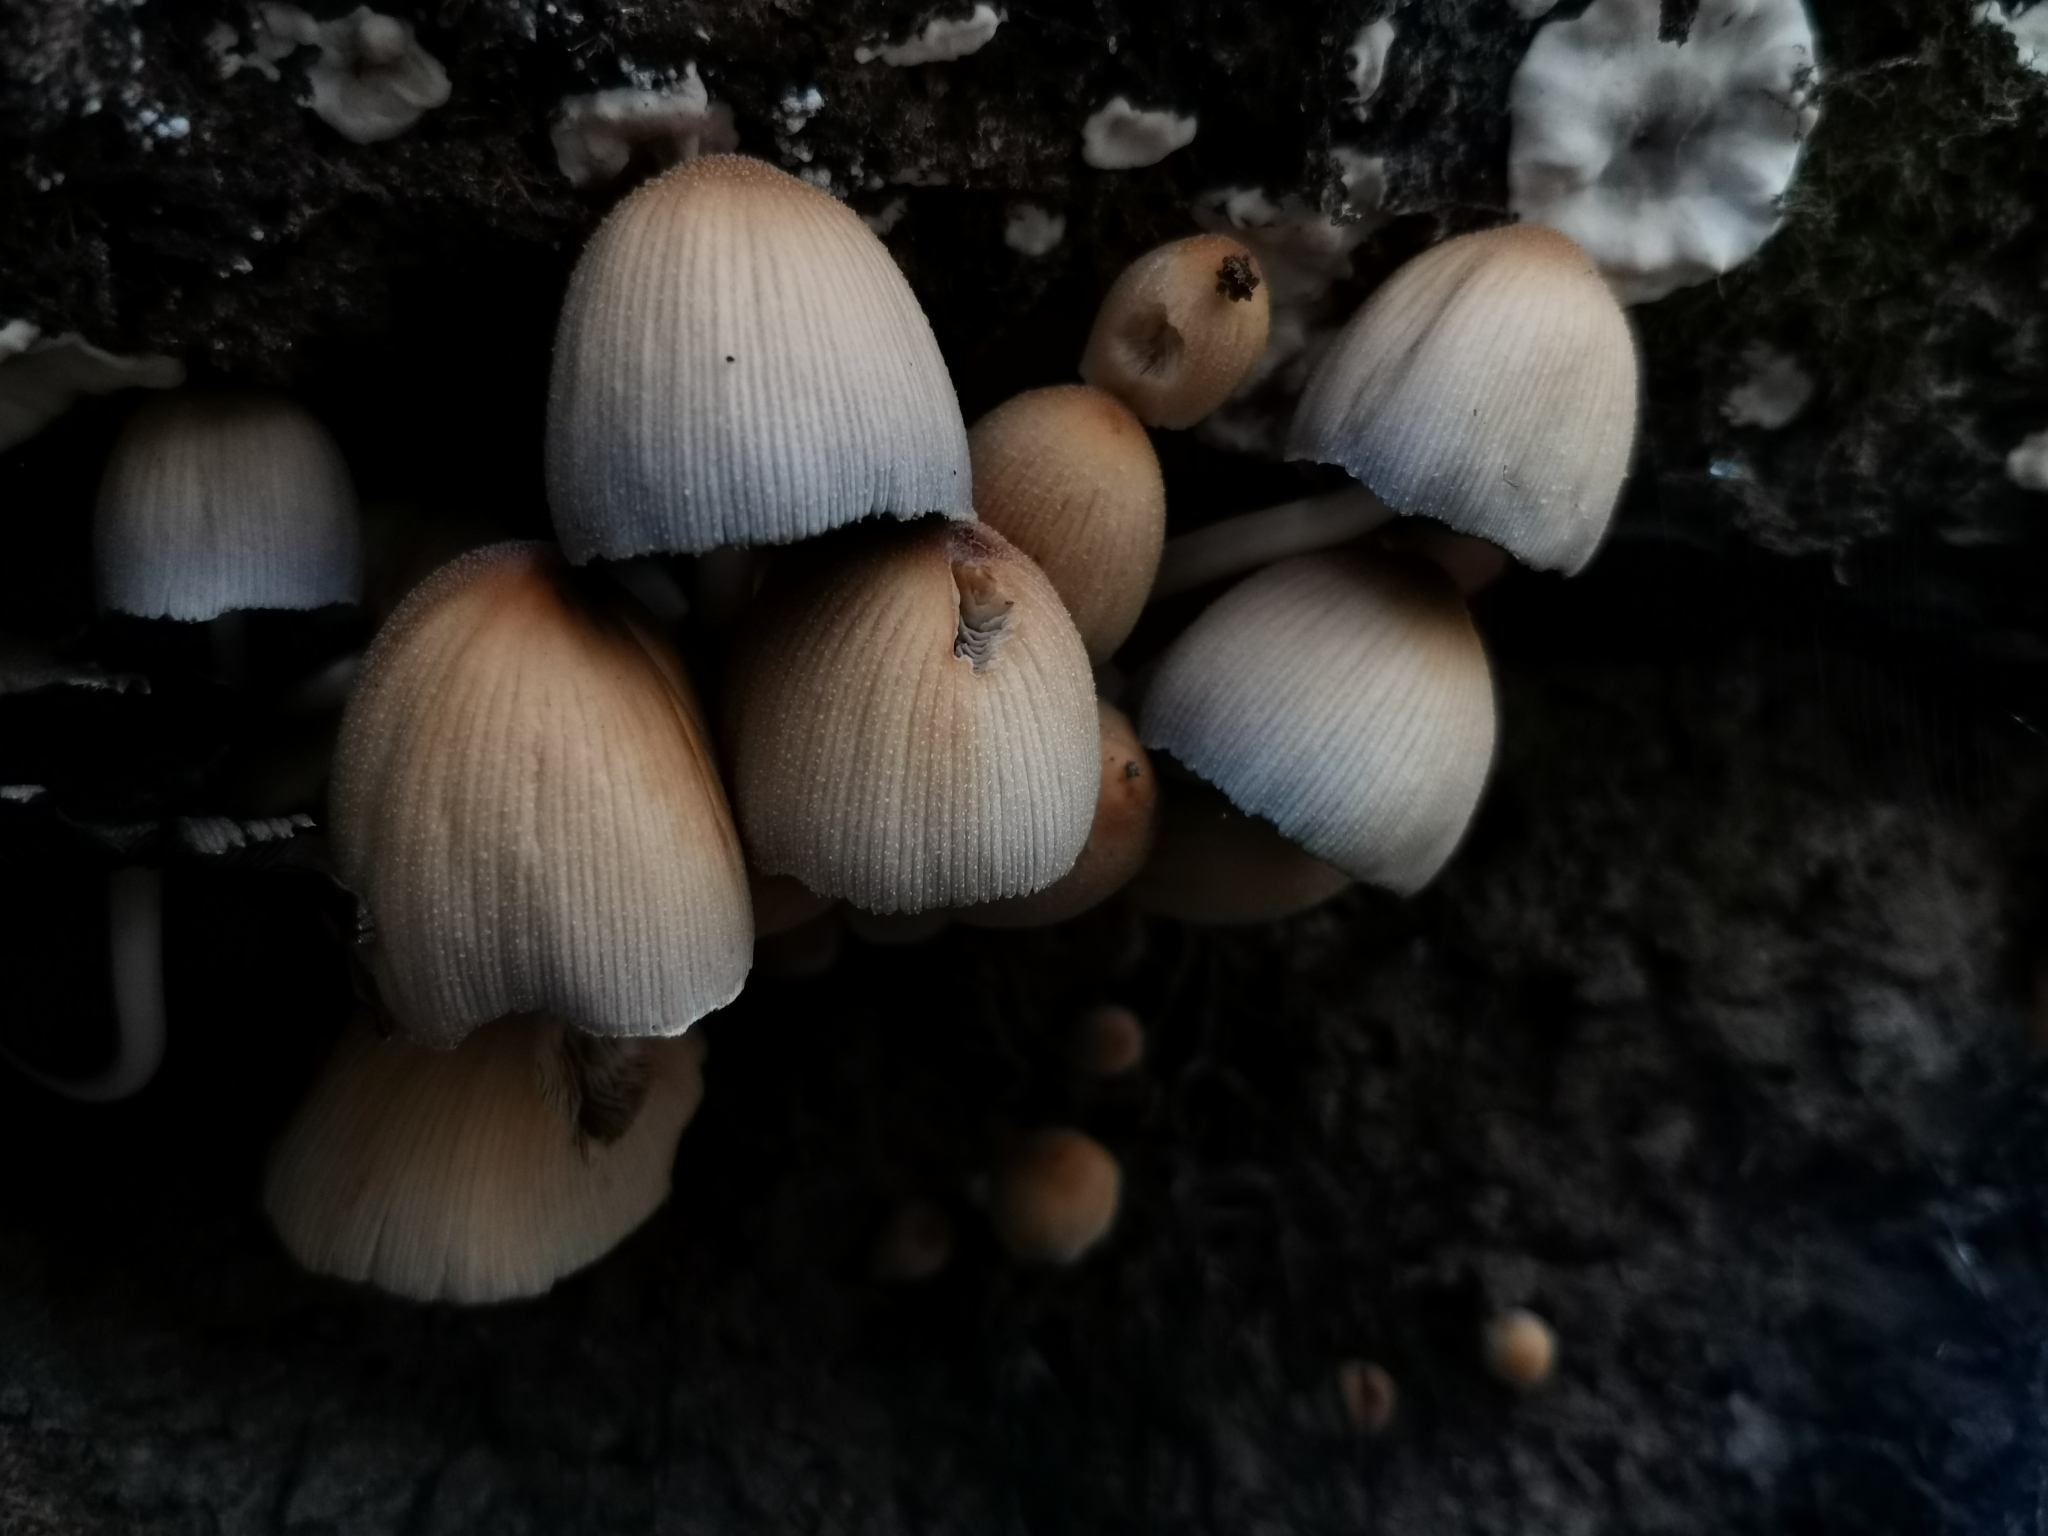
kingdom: Fungi
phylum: Basidiomycota
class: Agaricomycetes
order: Agaricales
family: Psathyrellaceae
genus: Coprinellus
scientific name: Coprinellus micaceus
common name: Glistening ink-cap
